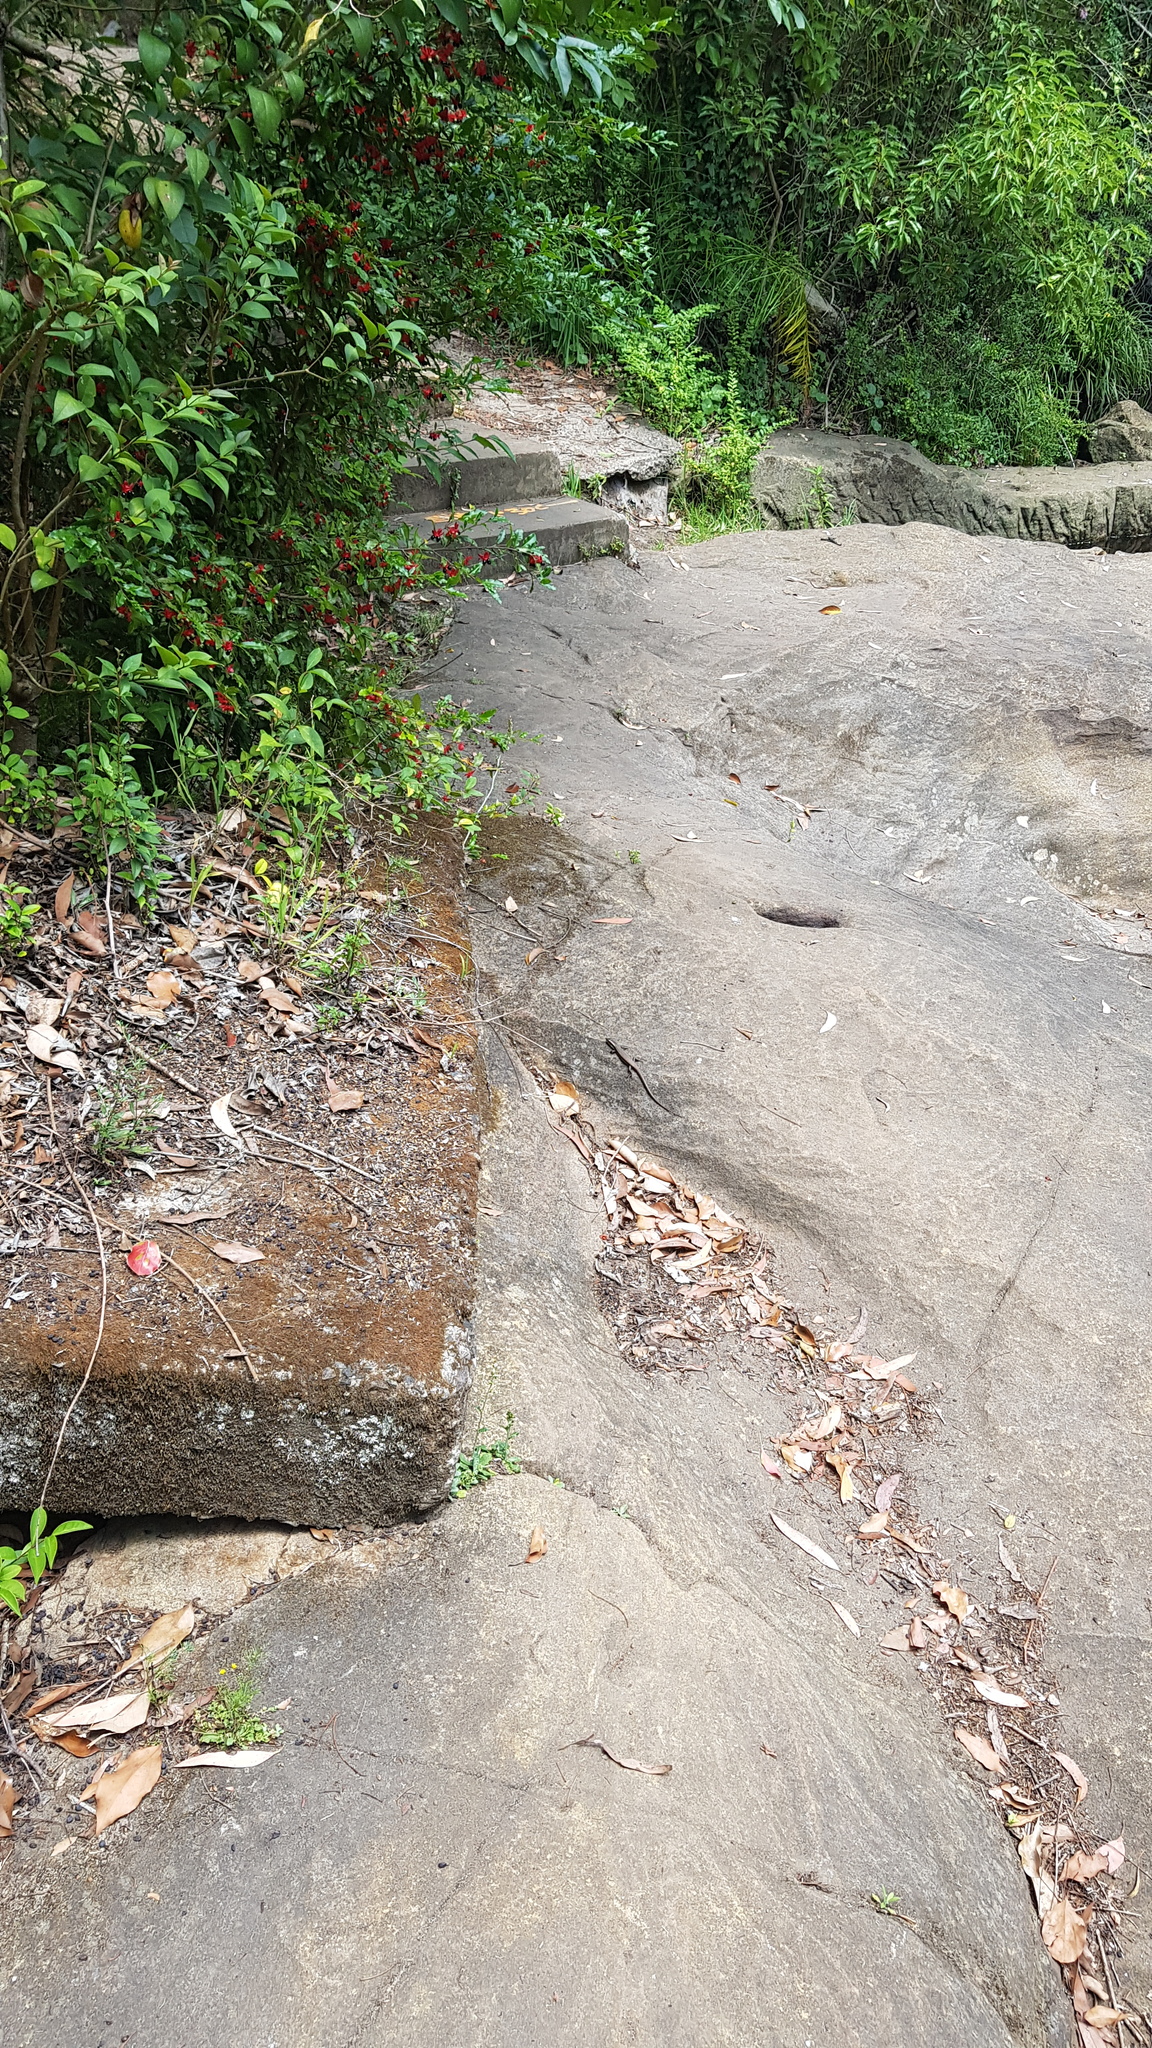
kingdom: Animalia
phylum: Chordata
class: Squamata
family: Scincidae
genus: Eulamprus
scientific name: Eulamprus quoyii
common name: Eastern water skink
